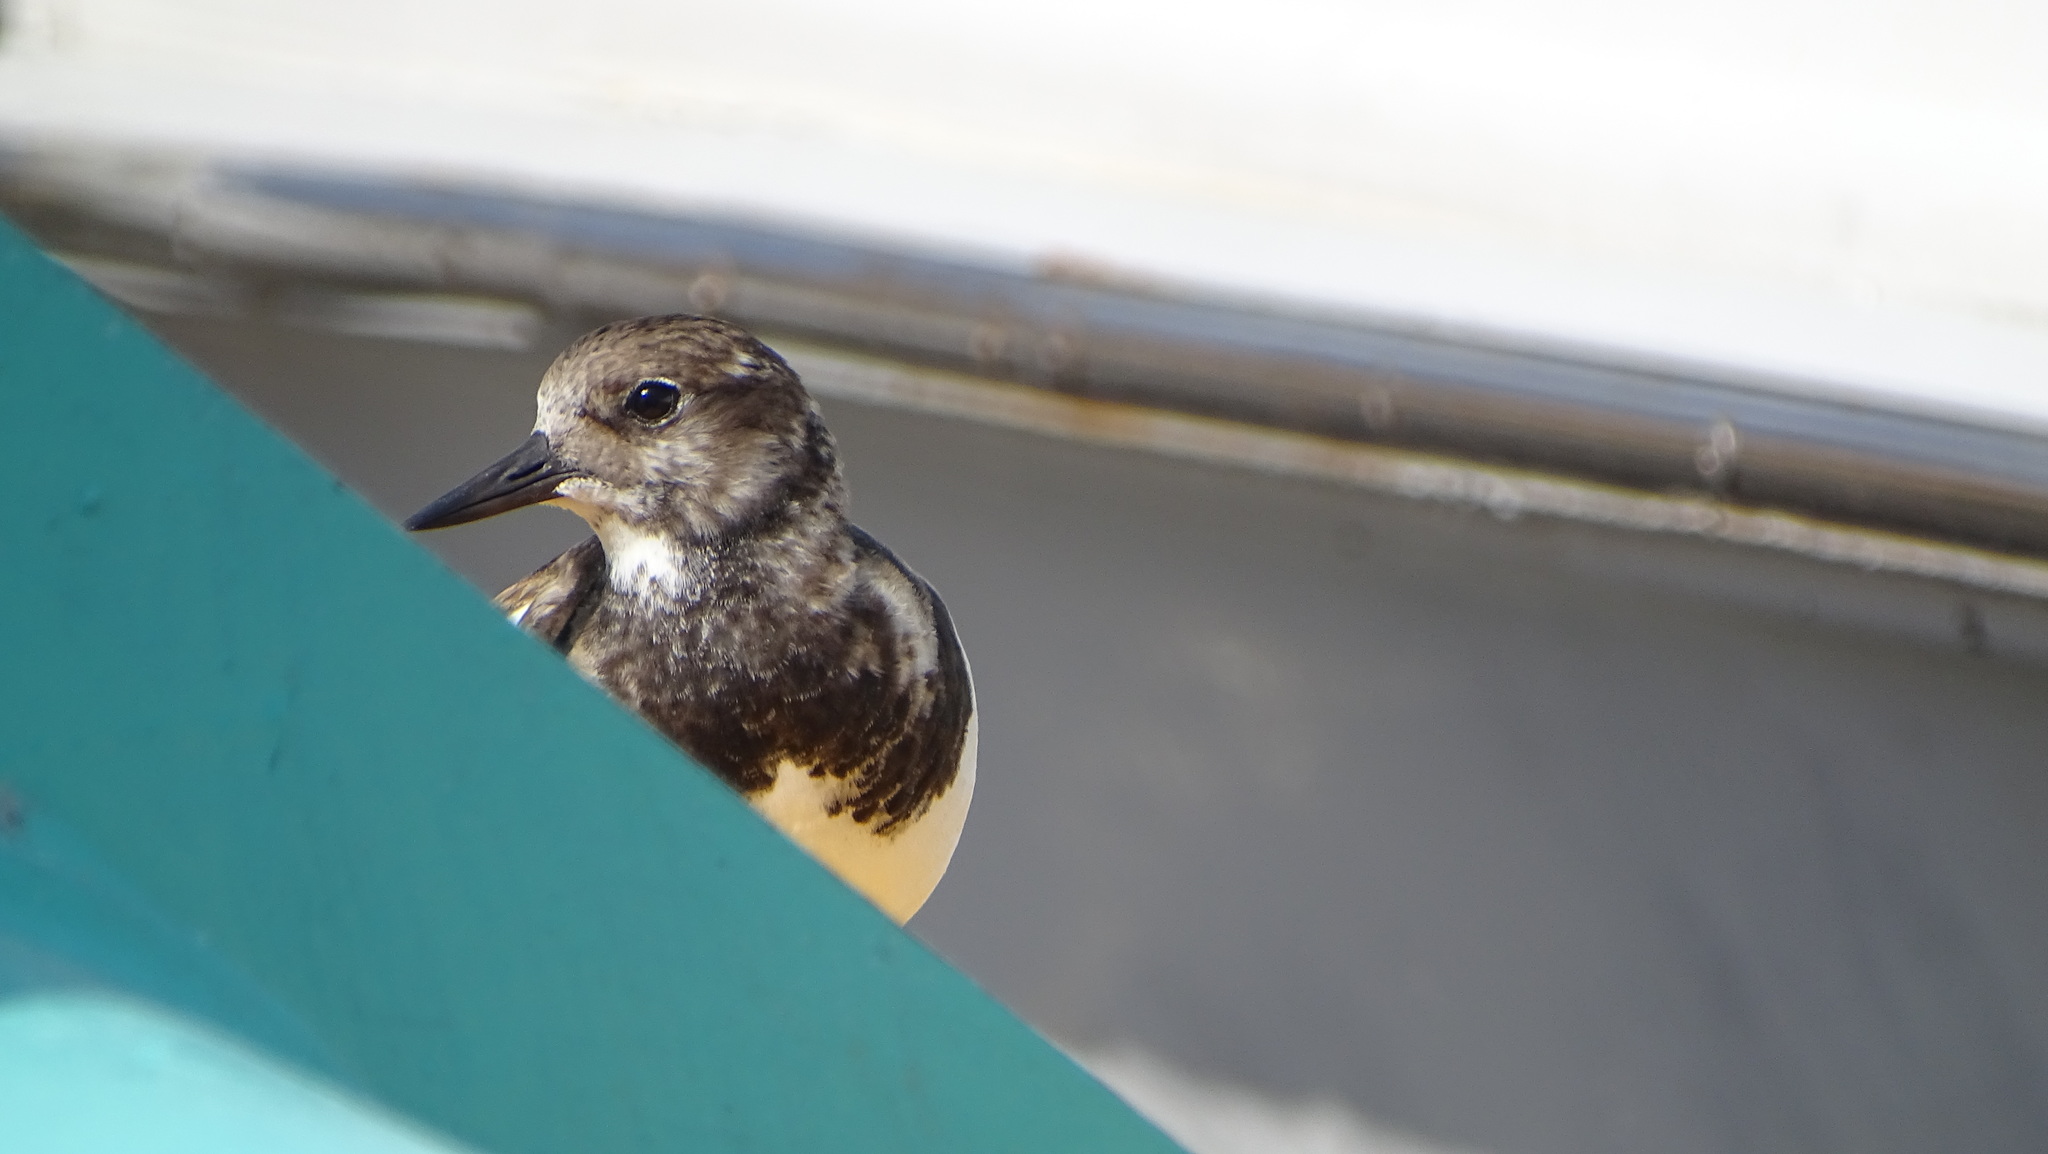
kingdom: Animalia
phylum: Chordata
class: Aves
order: Charadriiformes
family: Scolopacidae
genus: Arenaria
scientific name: Arenaria interpres
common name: Ruddy turnstone
